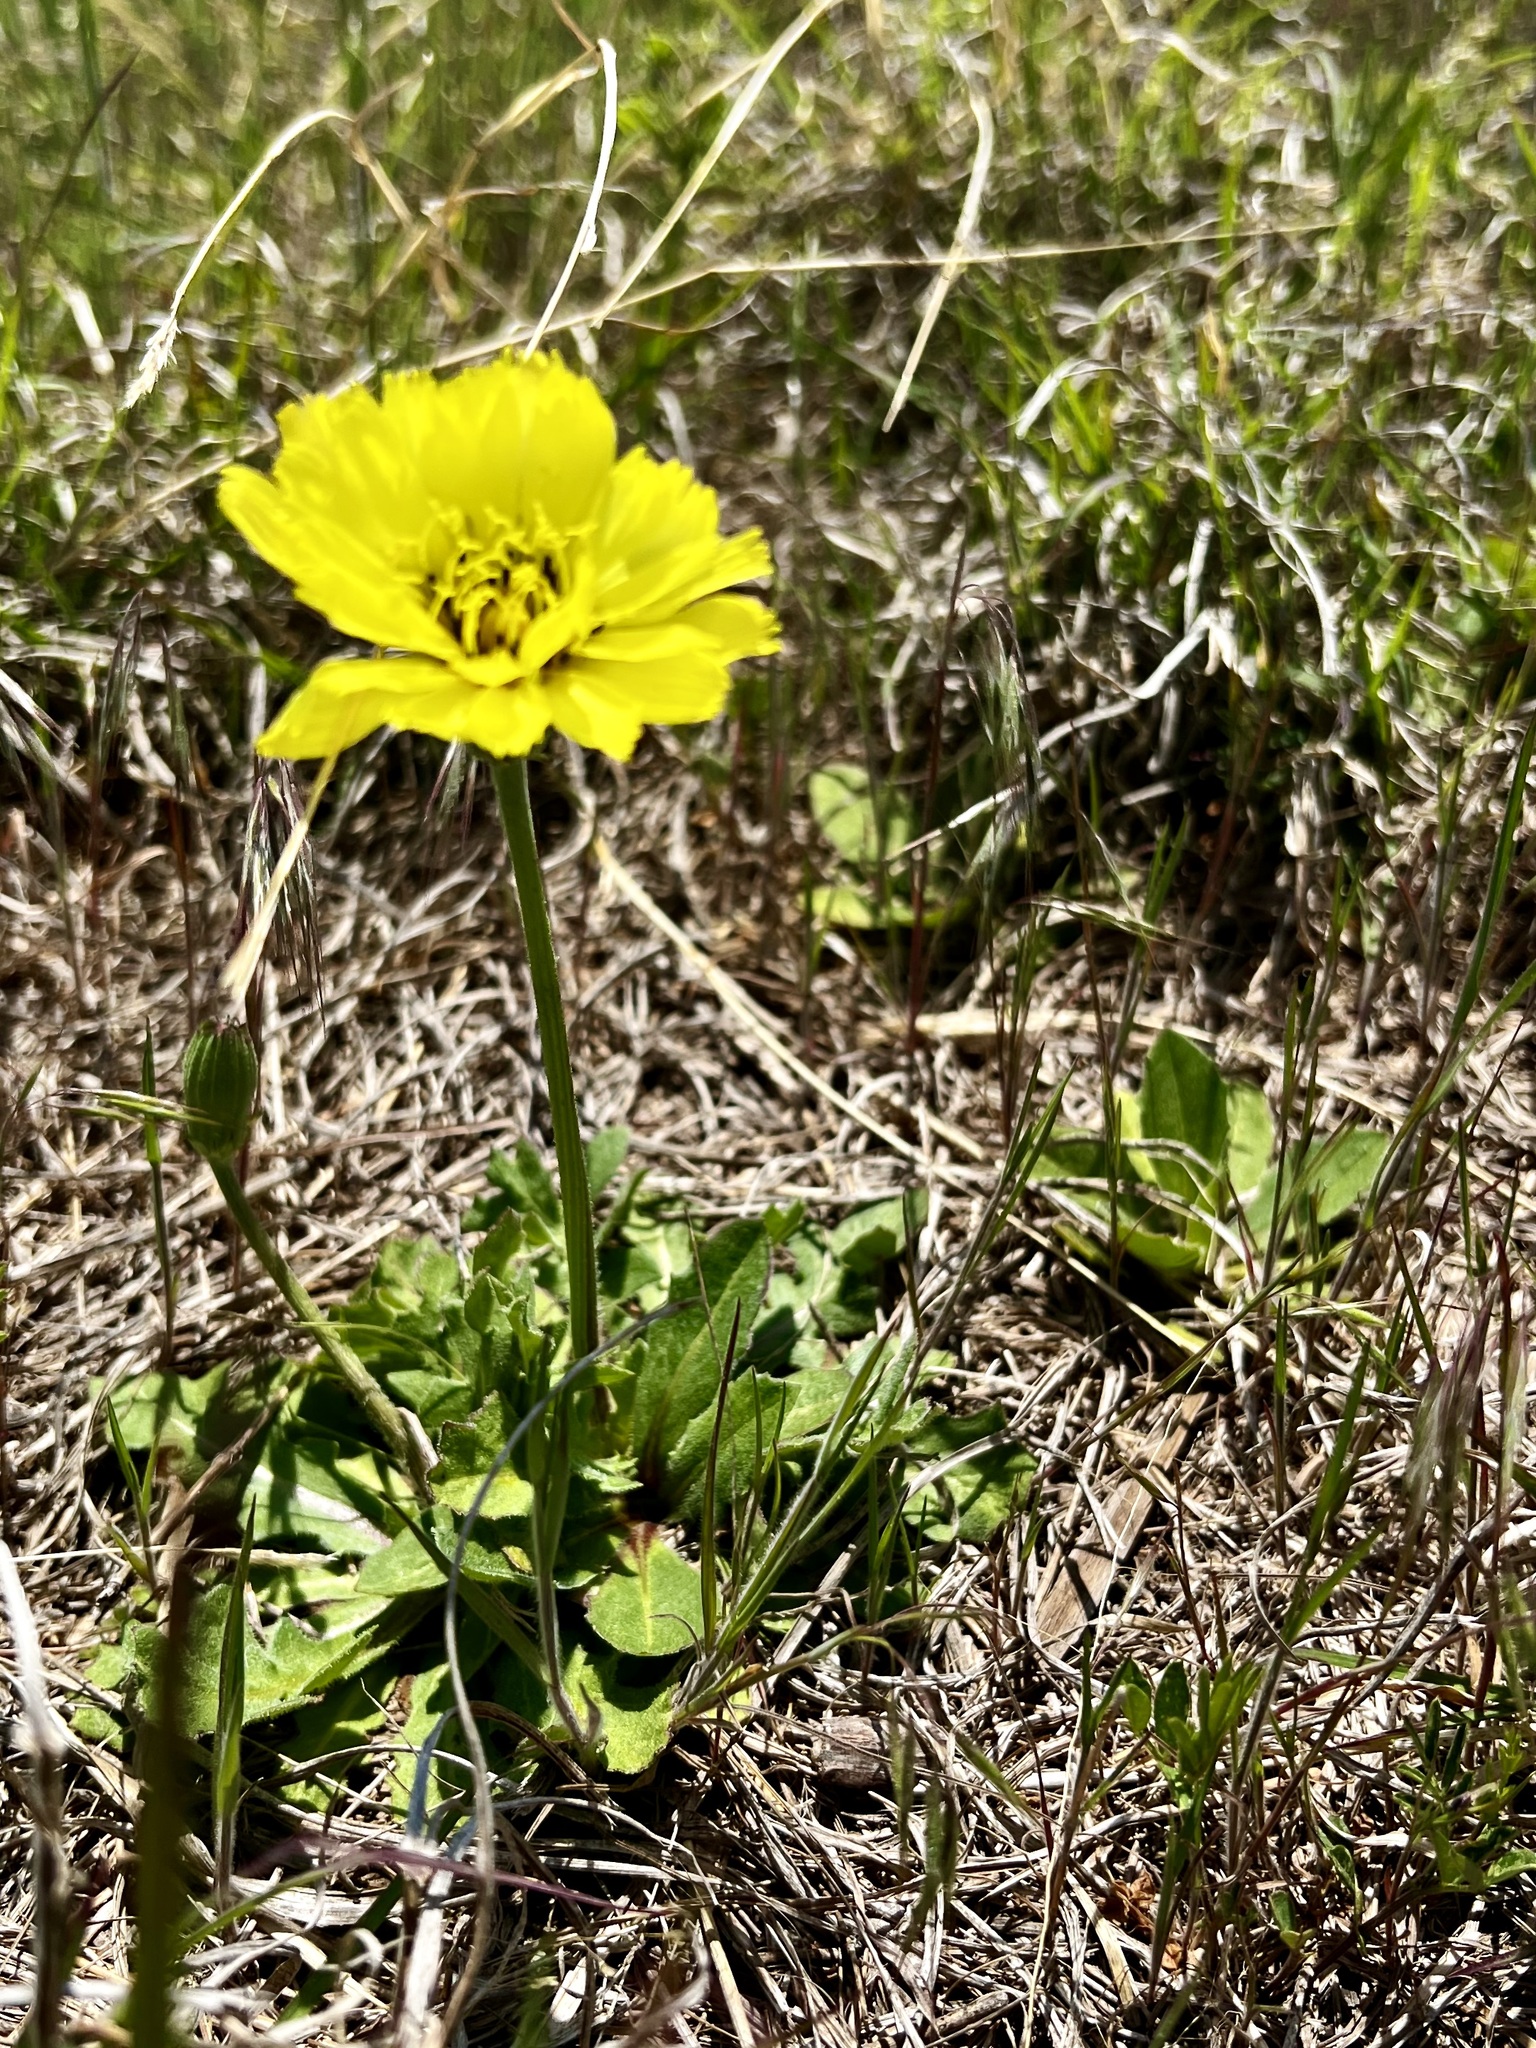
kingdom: Plantae
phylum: Tracheophyta
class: Magnoliopsida
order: Asterales
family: Asteraceae
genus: Pyrrhopappus
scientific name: Pyrrhopappus grandiflorus
